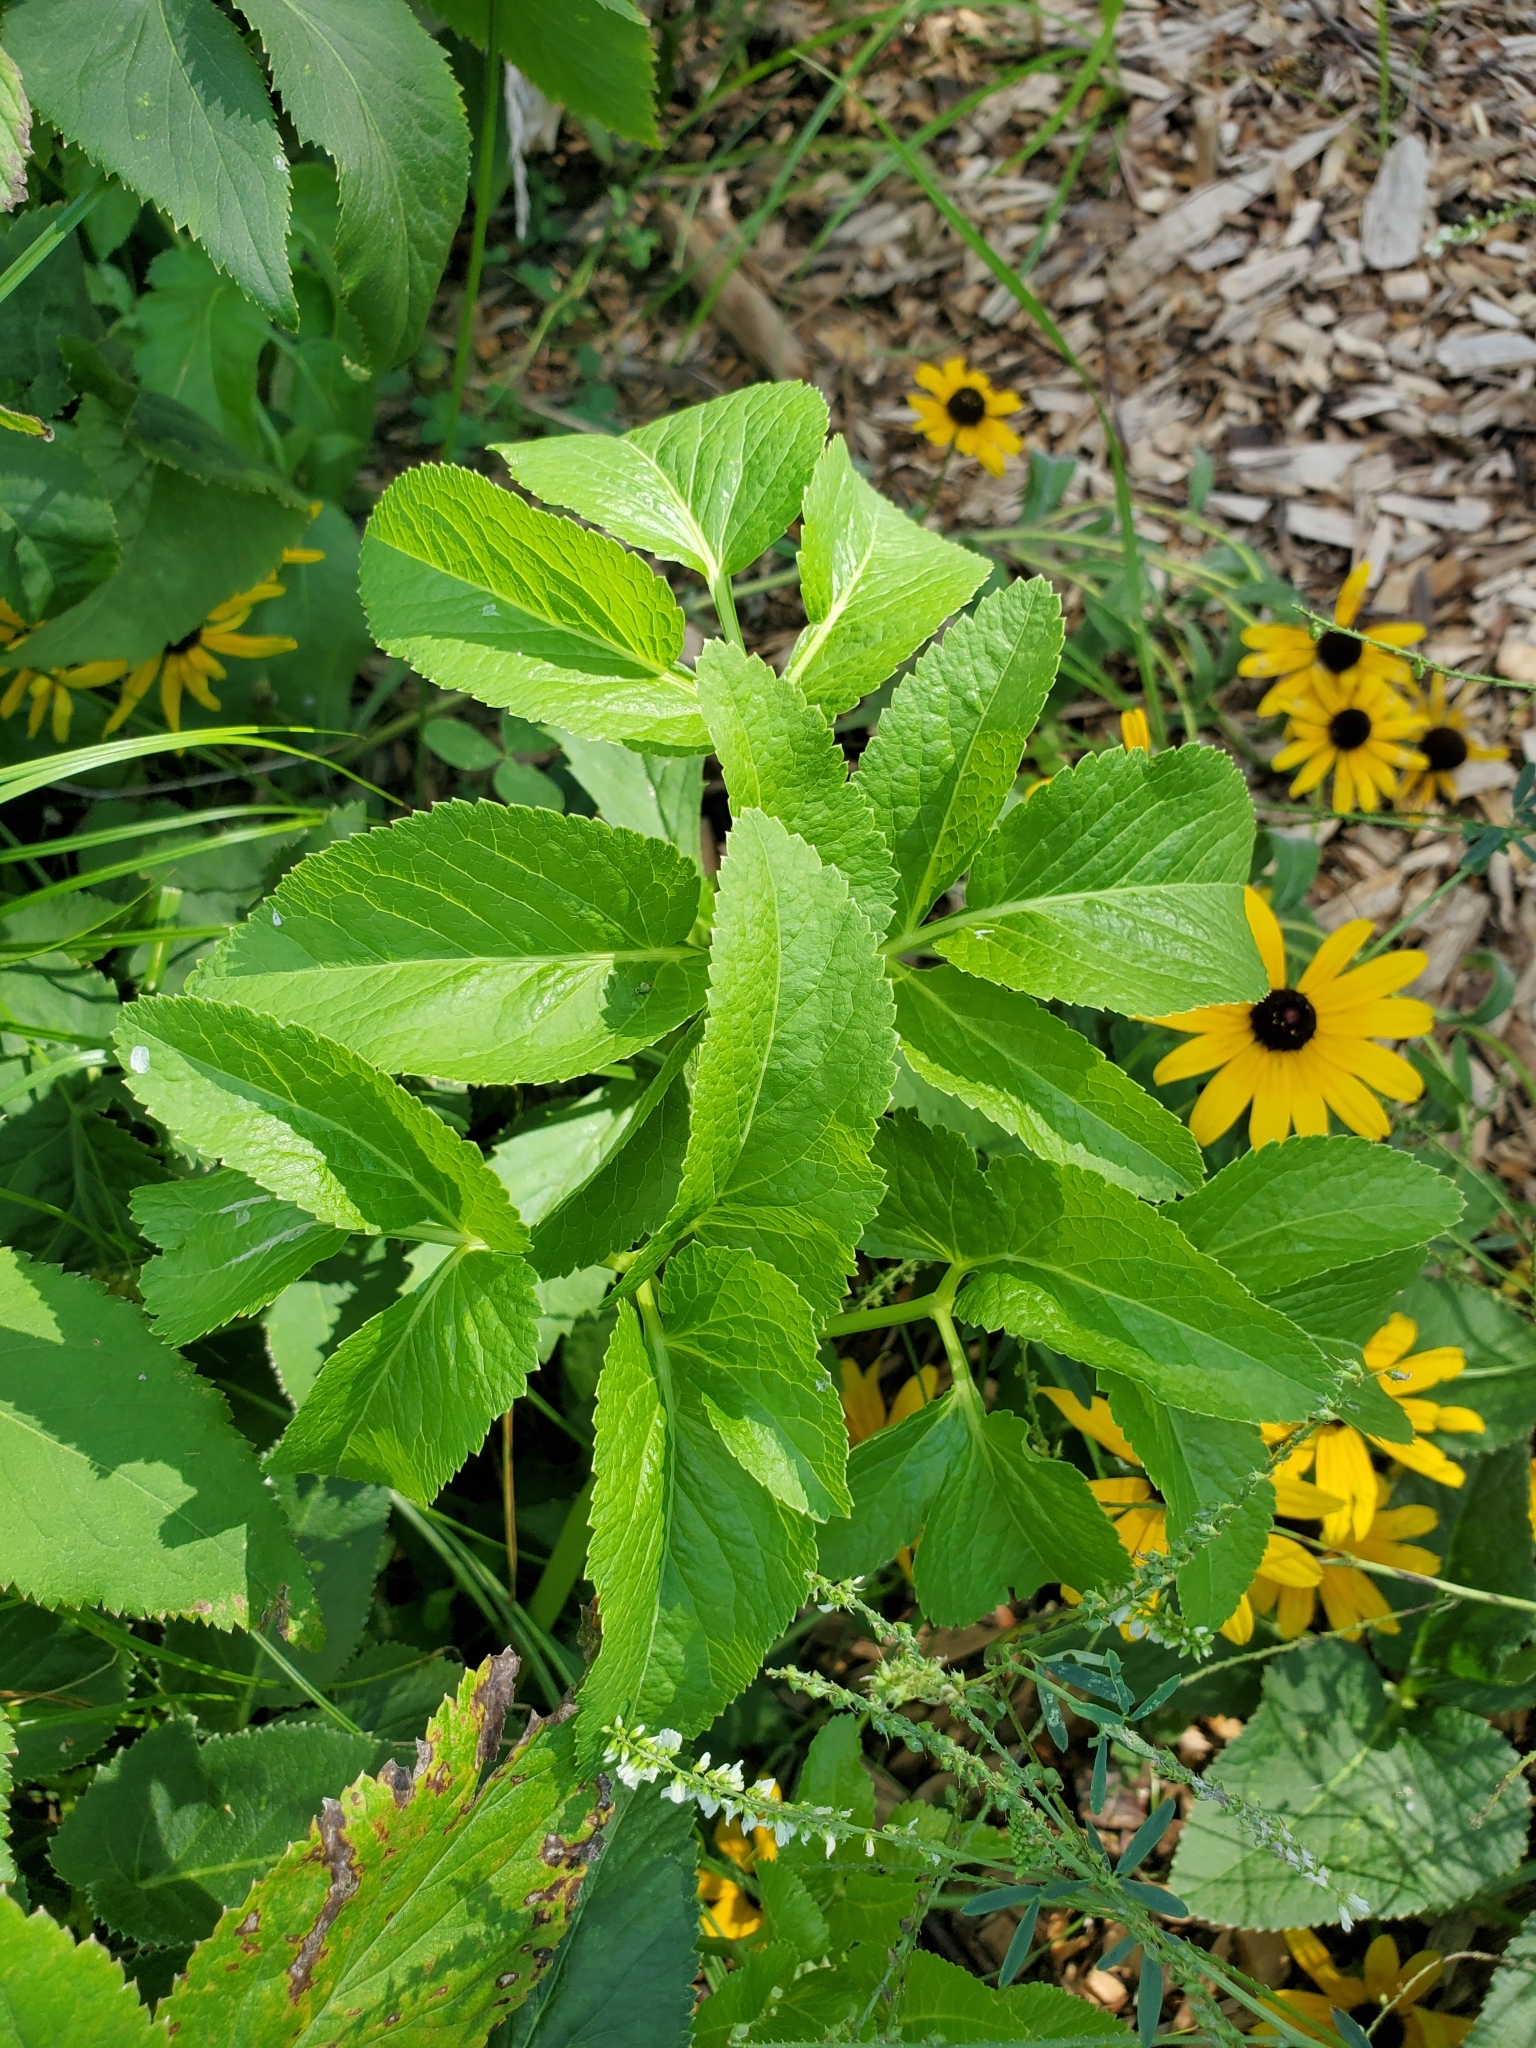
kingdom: Plantae
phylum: Tracheophyta
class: Magnoliopsida
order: Apiales
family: Apiaceae
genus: Zizia
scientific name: Zizia aurea
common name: Golden alexanders
